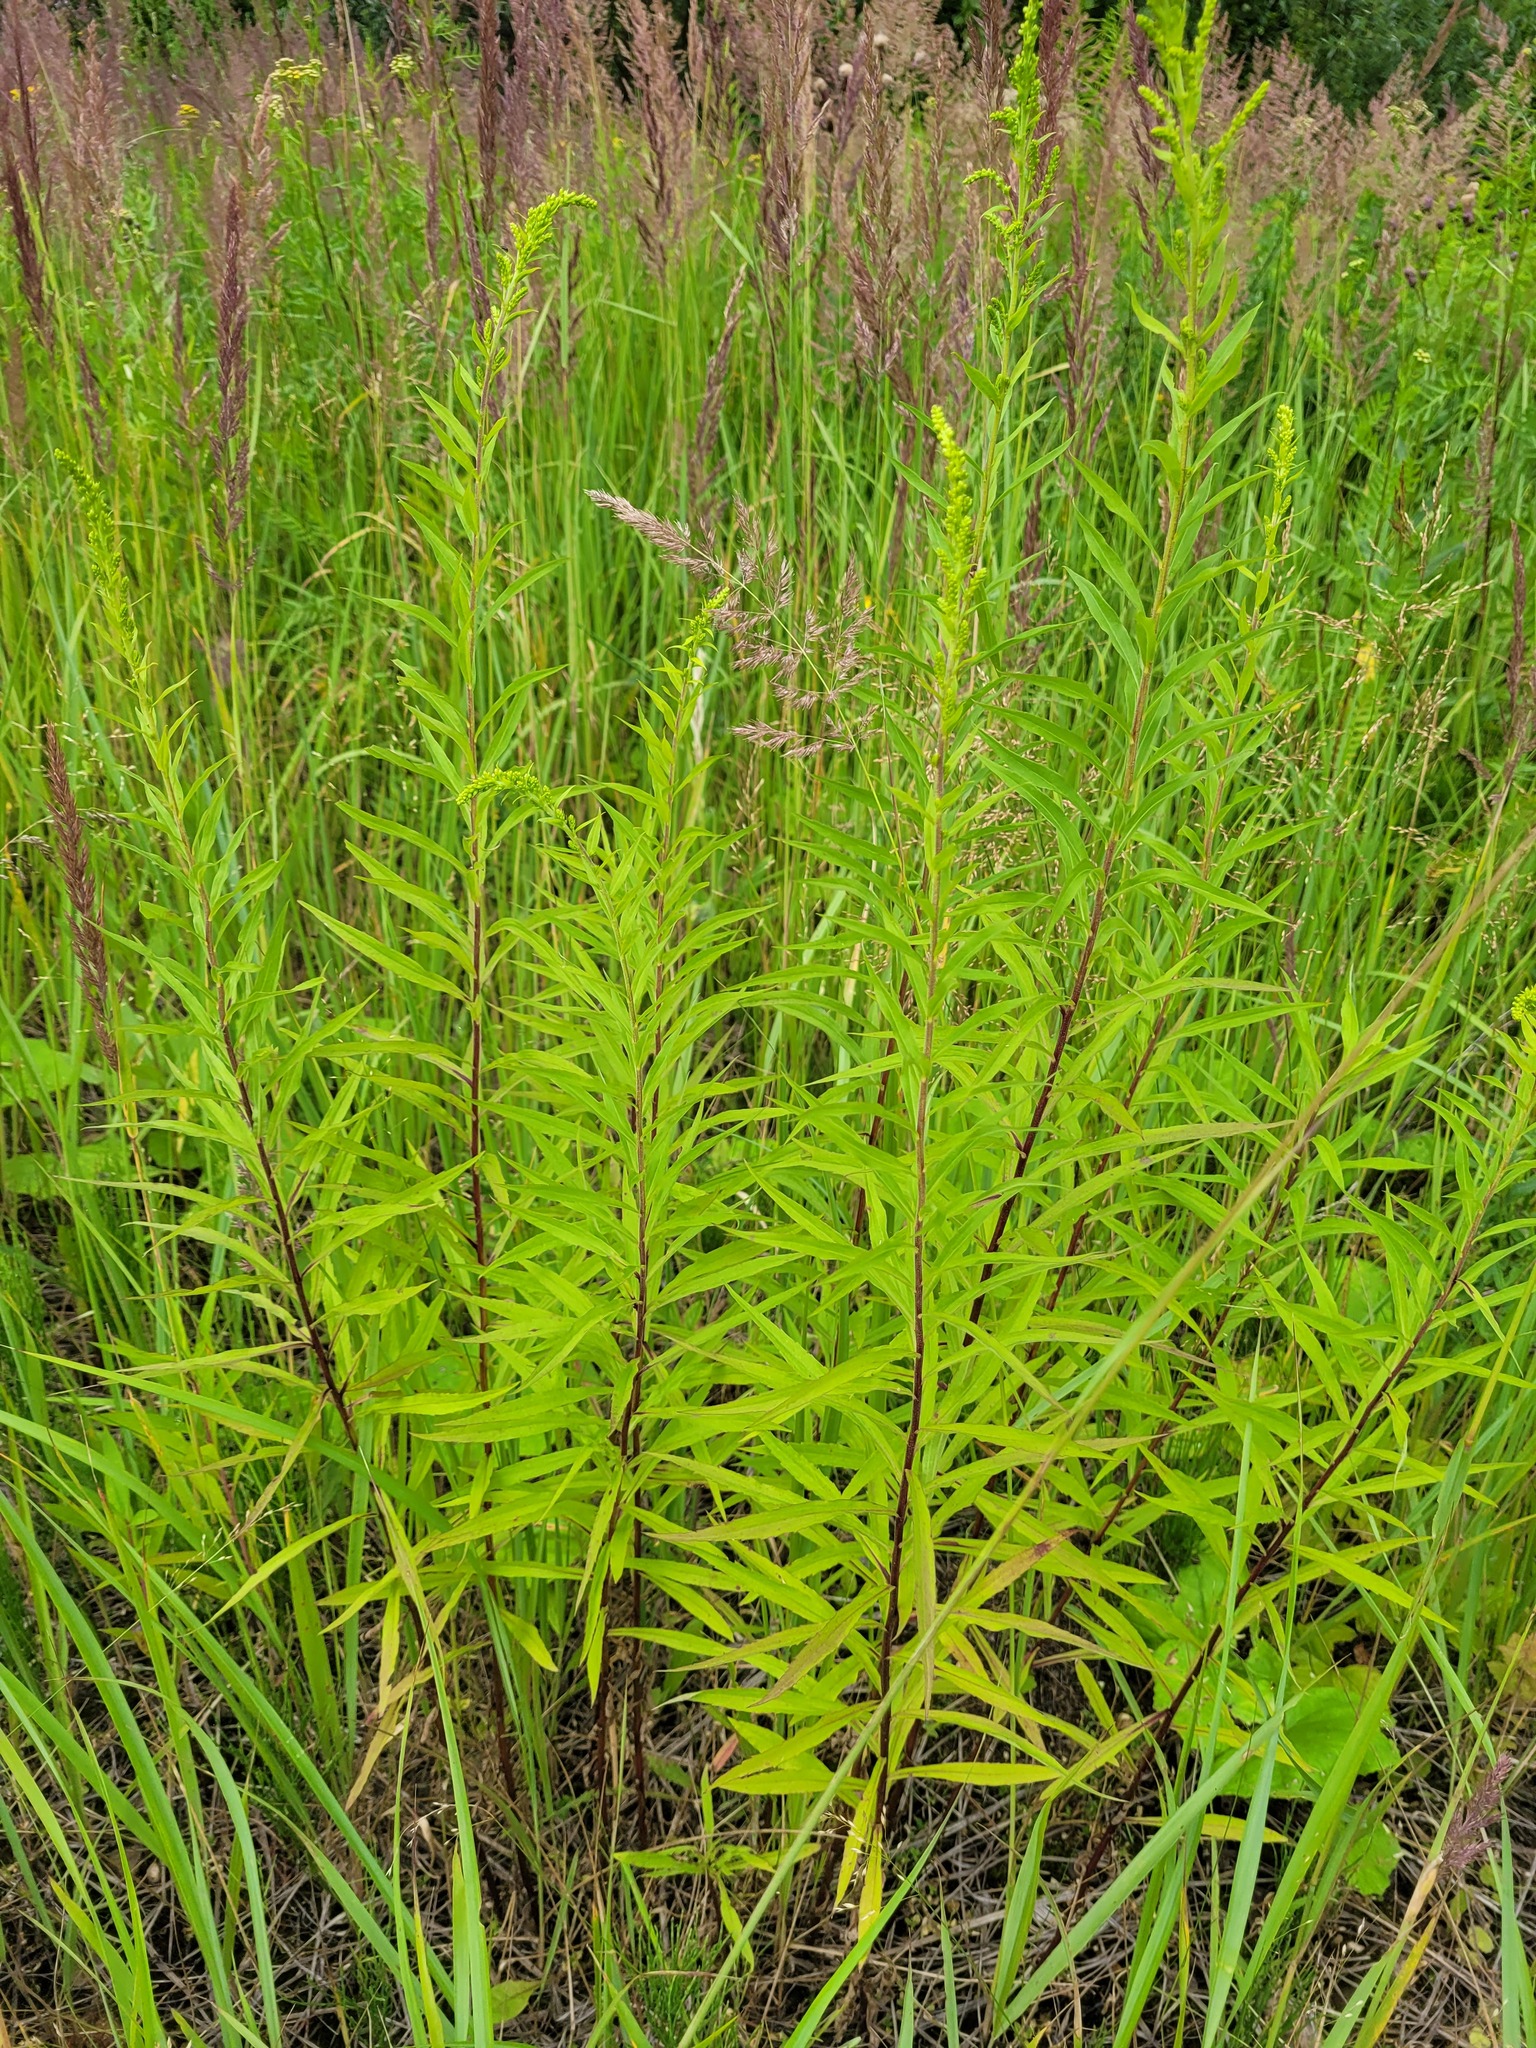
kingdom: Plantae
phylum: Tracheophyta
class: Magnoliopsida
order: Asterales
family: Asteraceae
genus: Solidago
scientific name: Solidago canadensis
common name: Canada goldenrod
